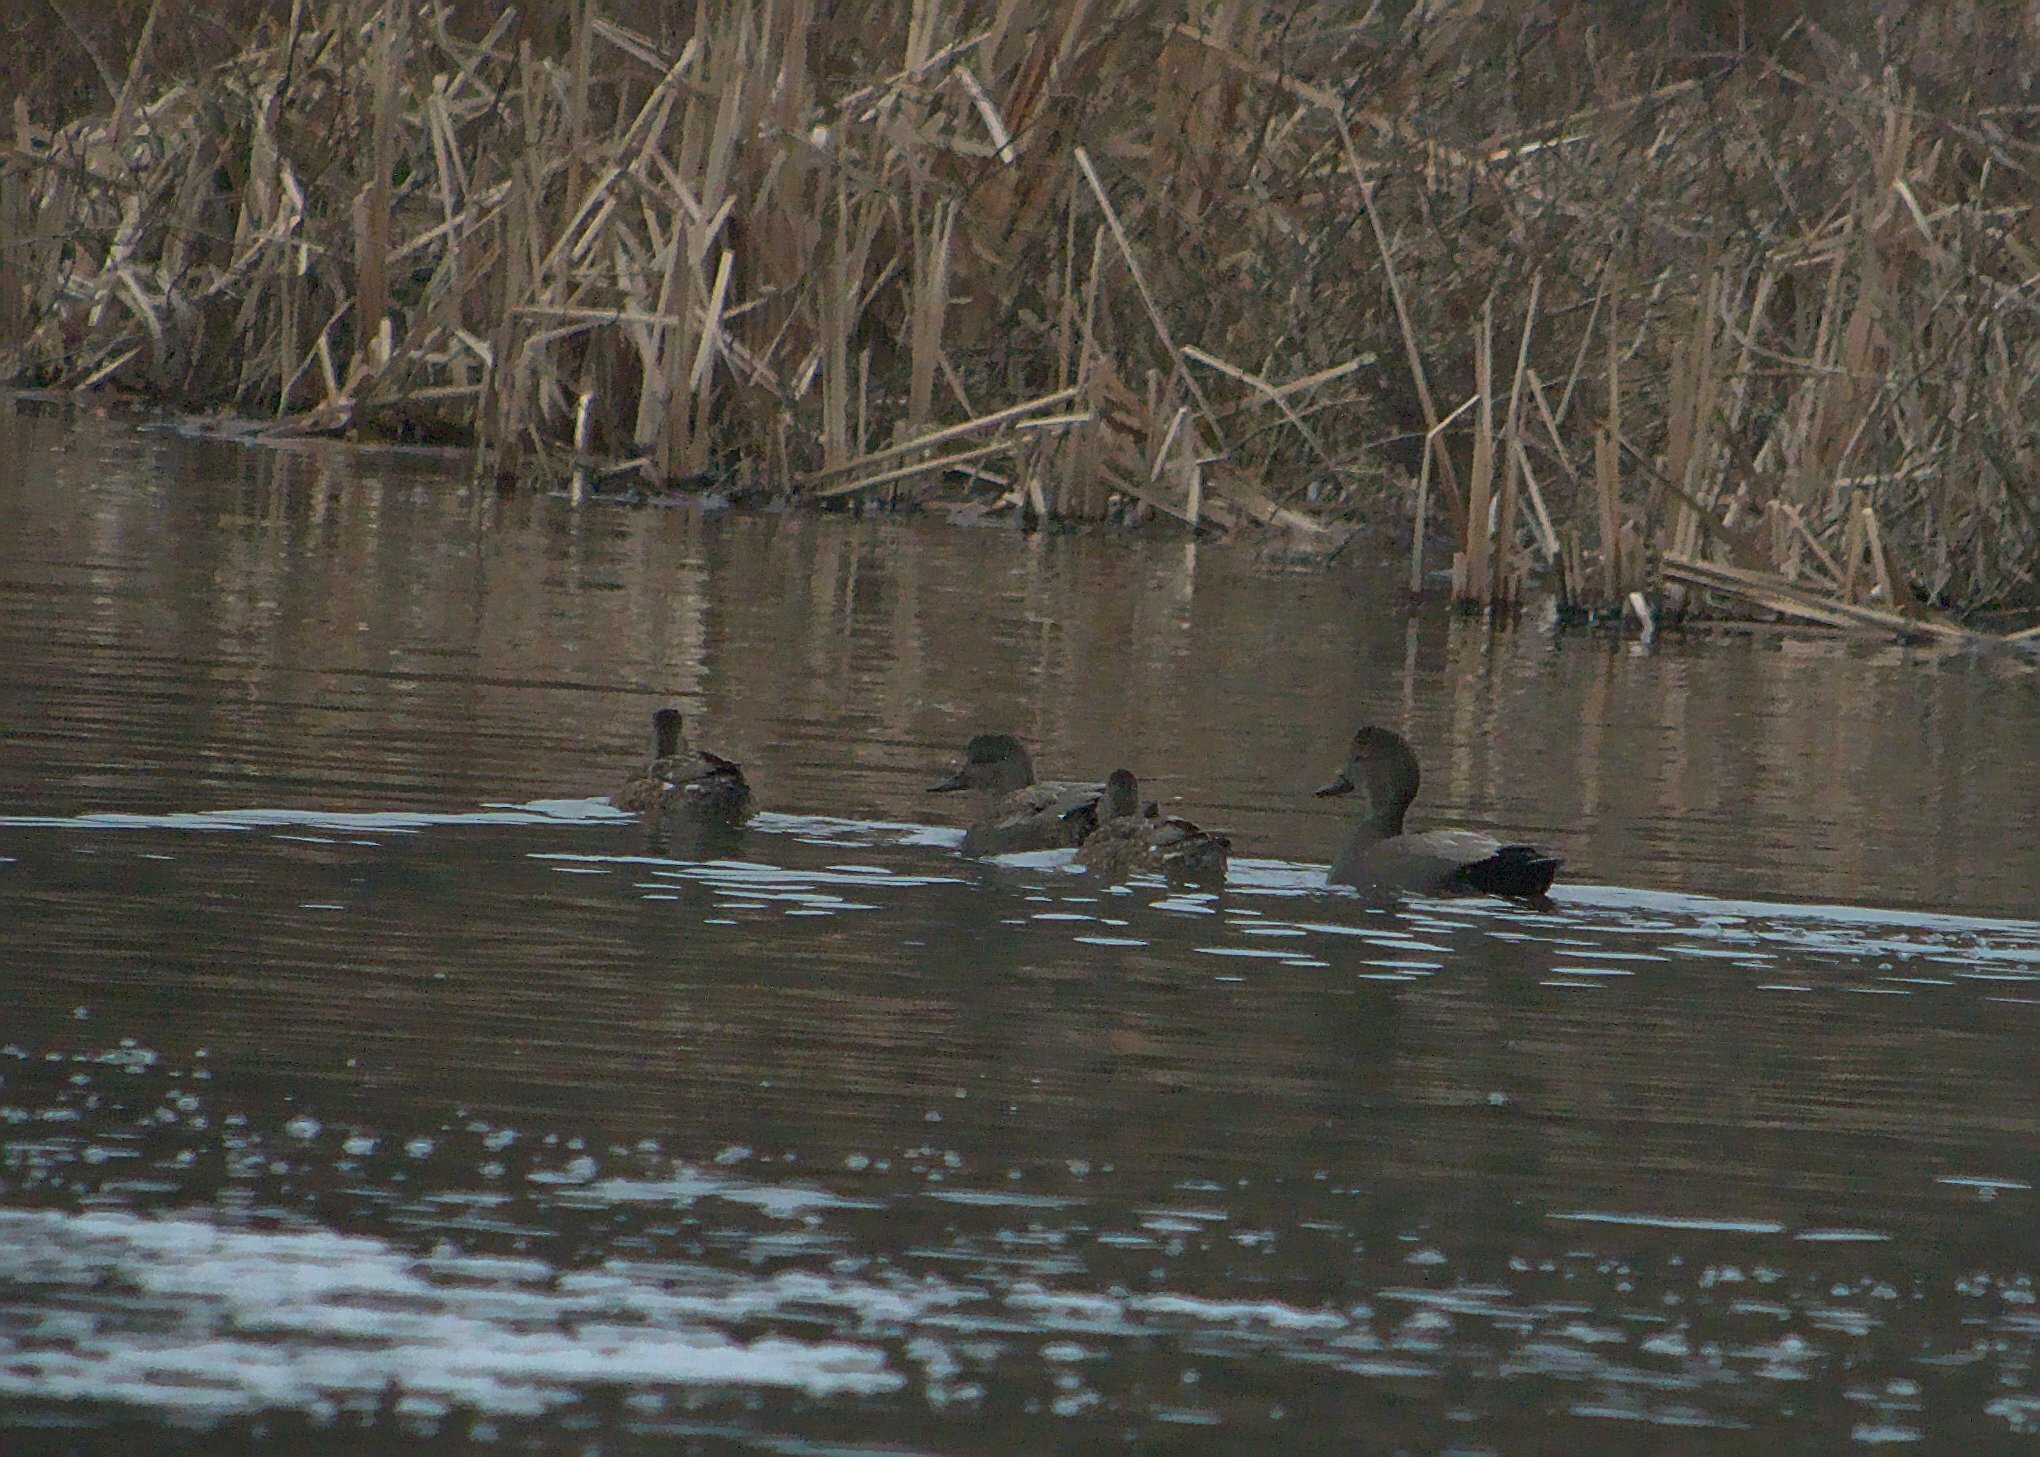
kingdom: Animalia
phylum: Chordata
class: Aves
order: Anseriformes
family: Anatidae
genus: Mareca
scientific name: Mareca strepera
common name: Gadwall
